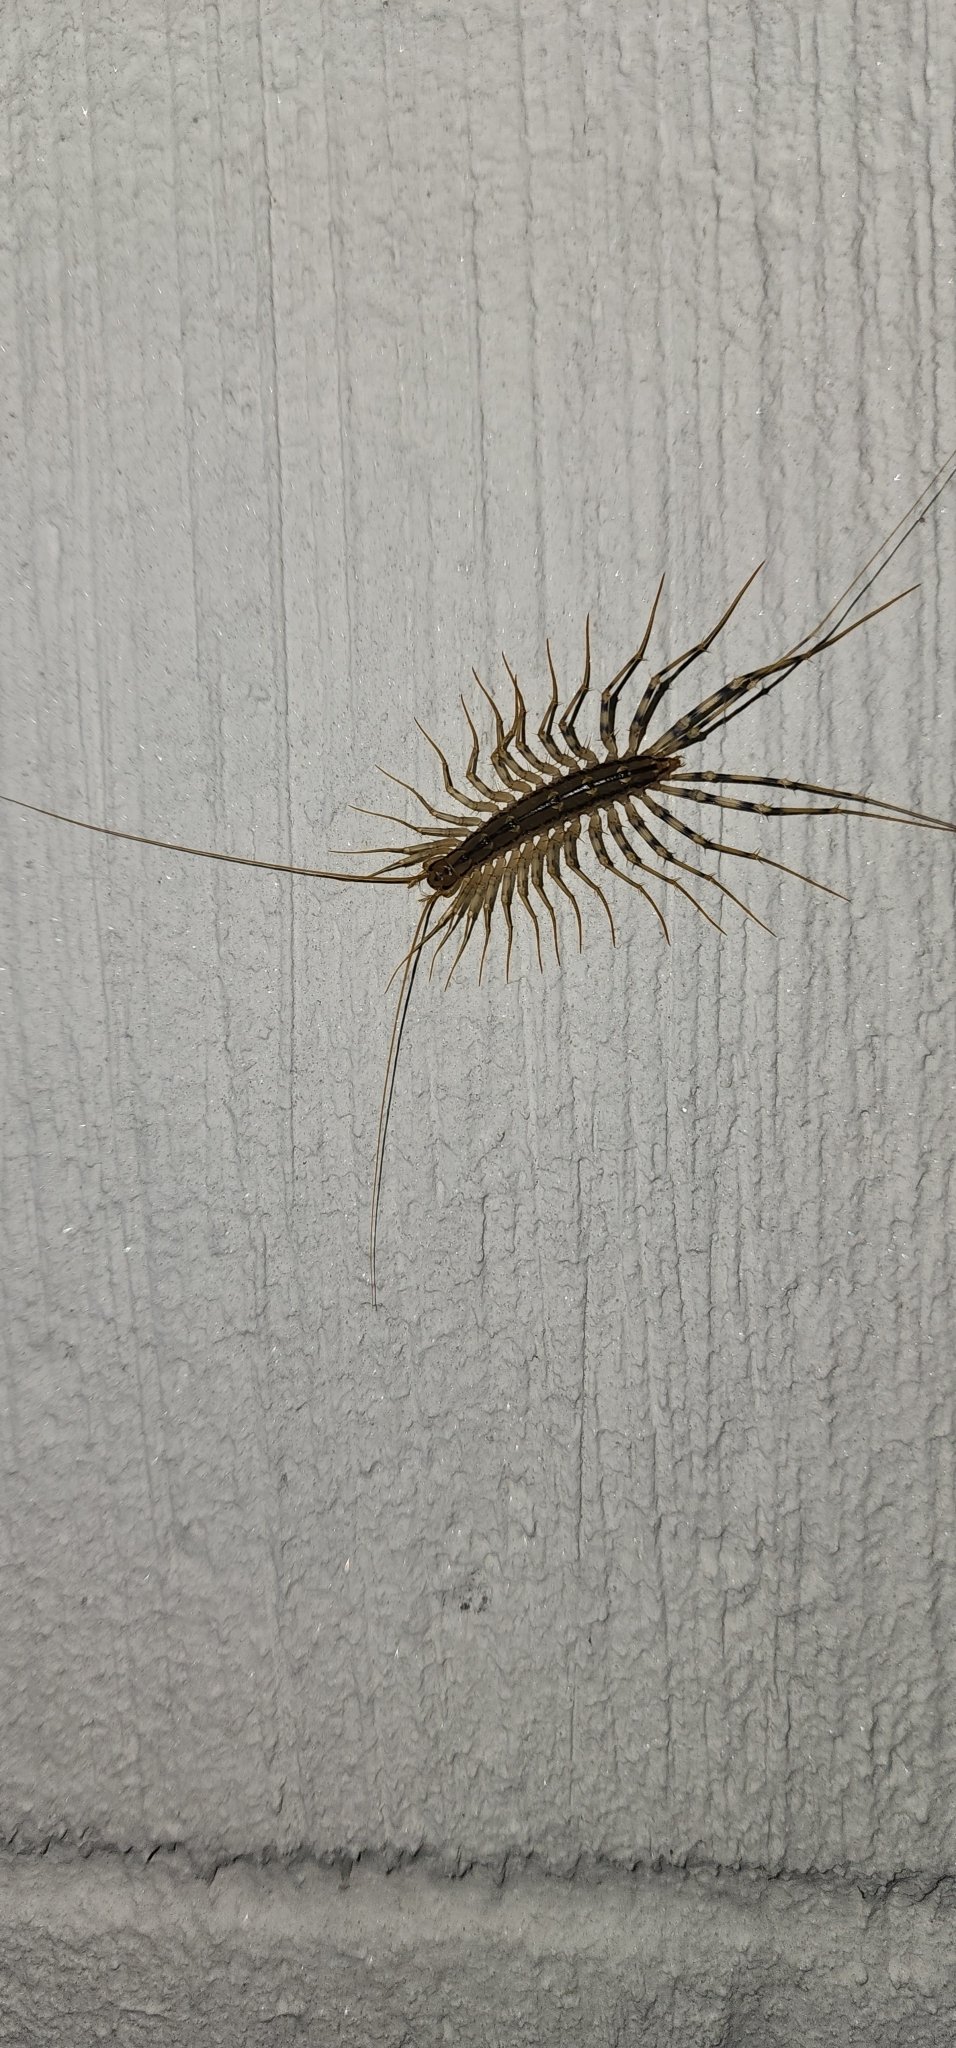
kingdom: Animalia
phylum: Arthropoda
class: Chilopoda
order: Scutigeromorpha
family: Scutigeridae
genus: Scutigera
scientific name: Scutigera coleoptrata
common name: House centipede
